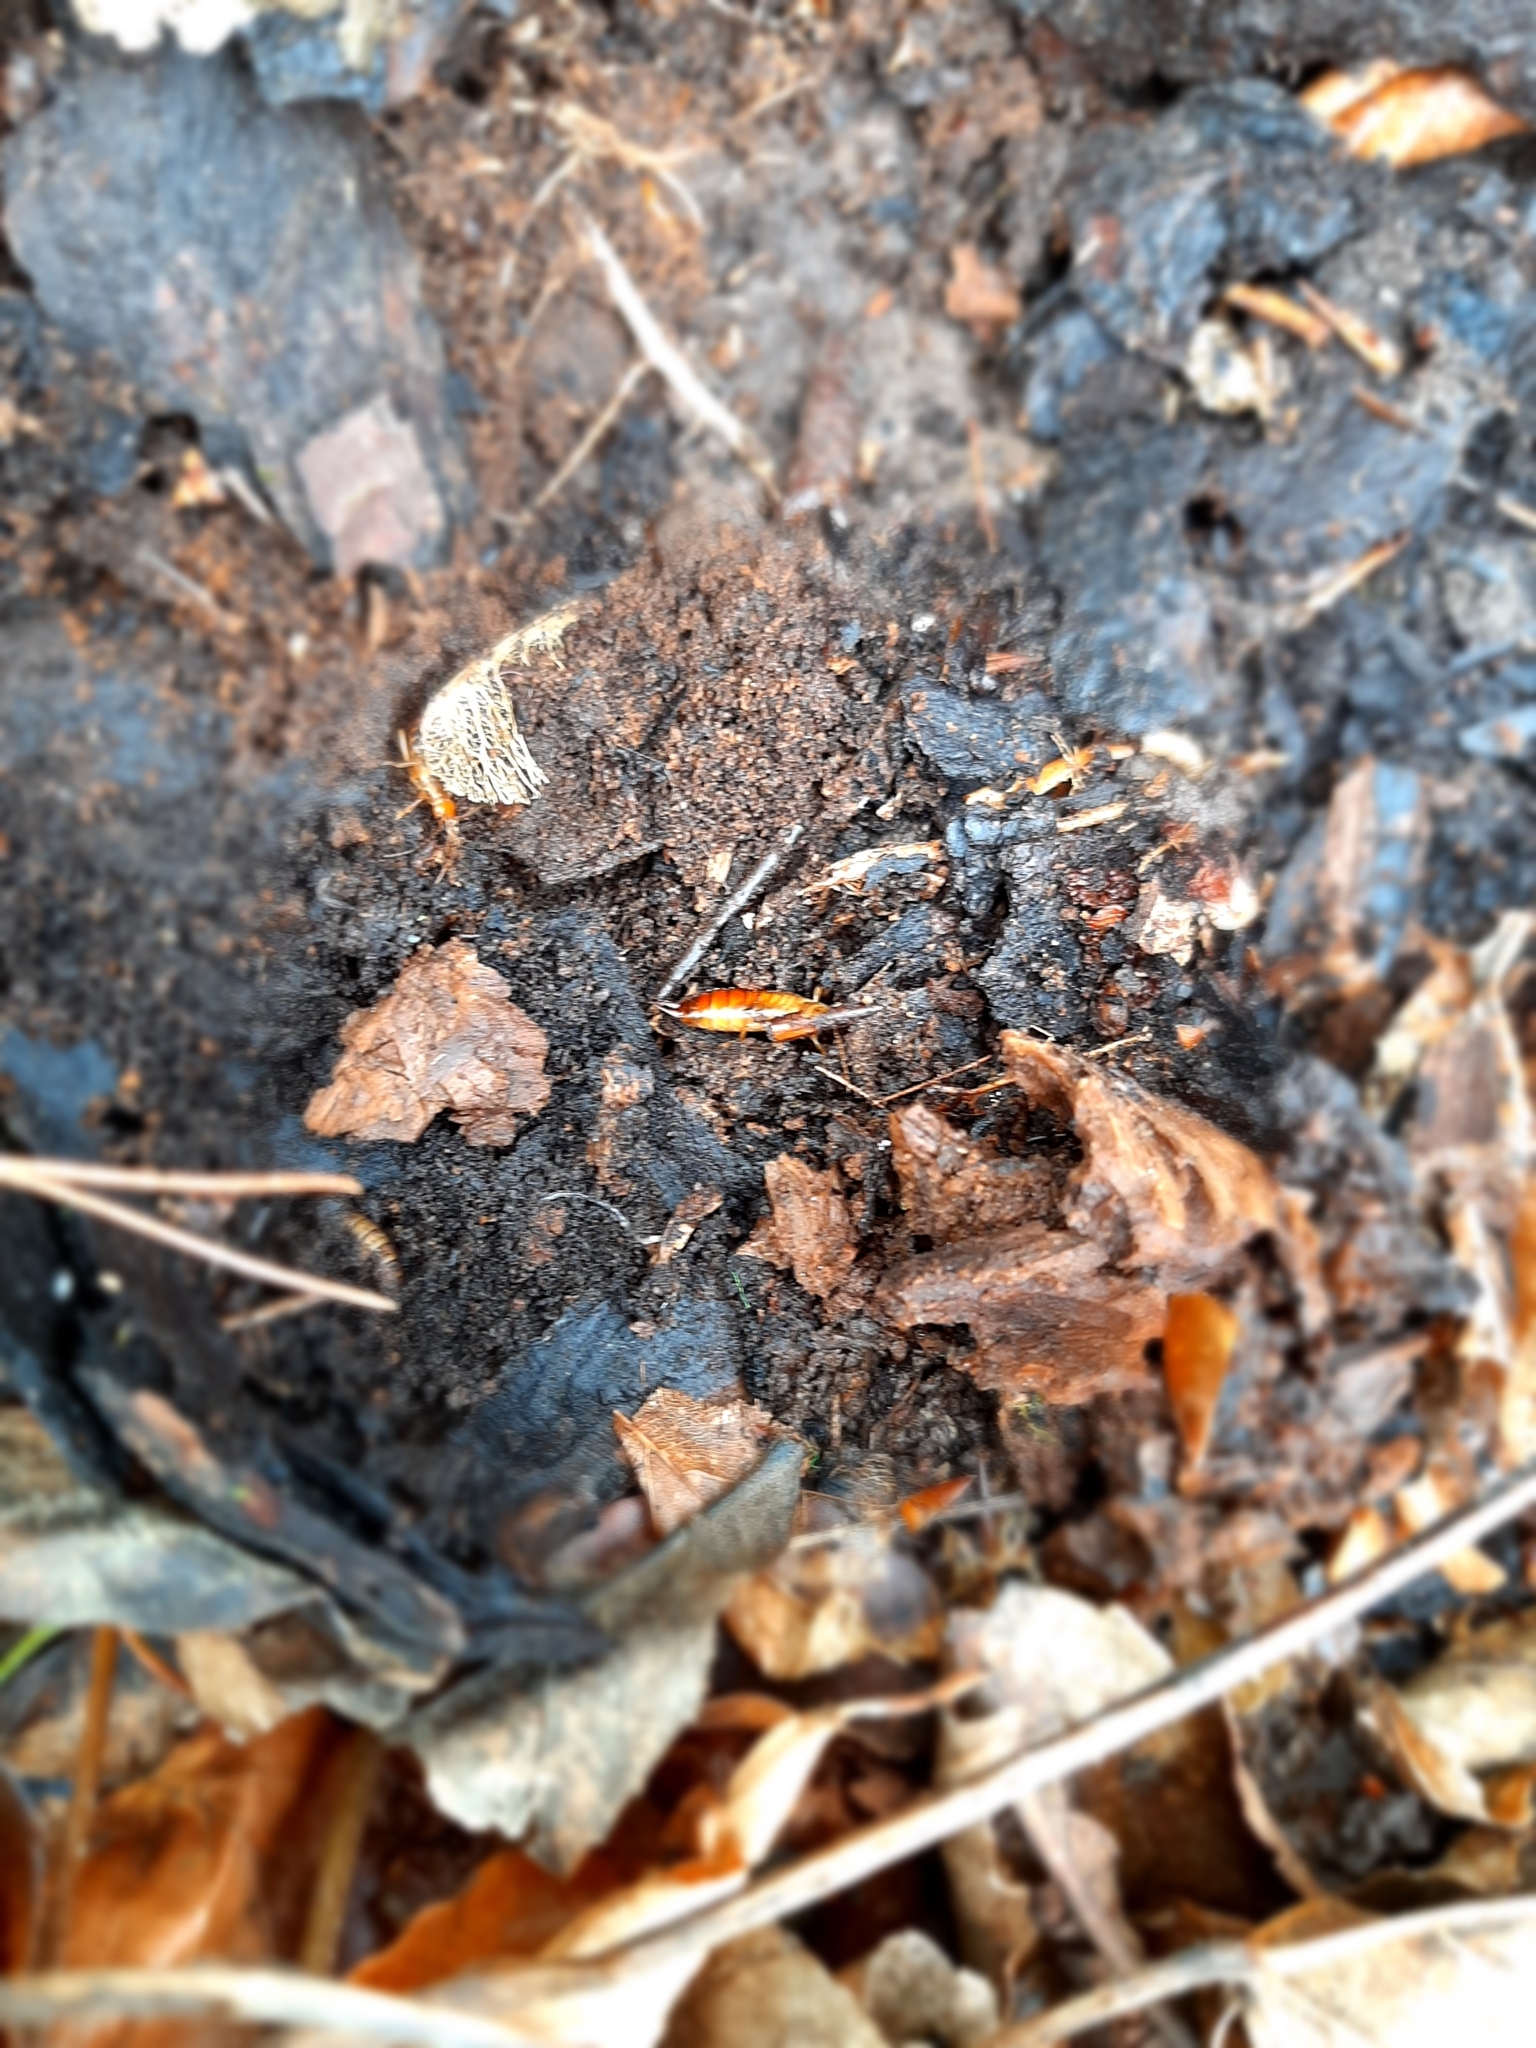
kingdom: Animalia
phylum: Arthropoda
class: Insecta
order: Dermaptera
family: Forficulidae
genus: Chelidurella
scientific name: Chelidurella
